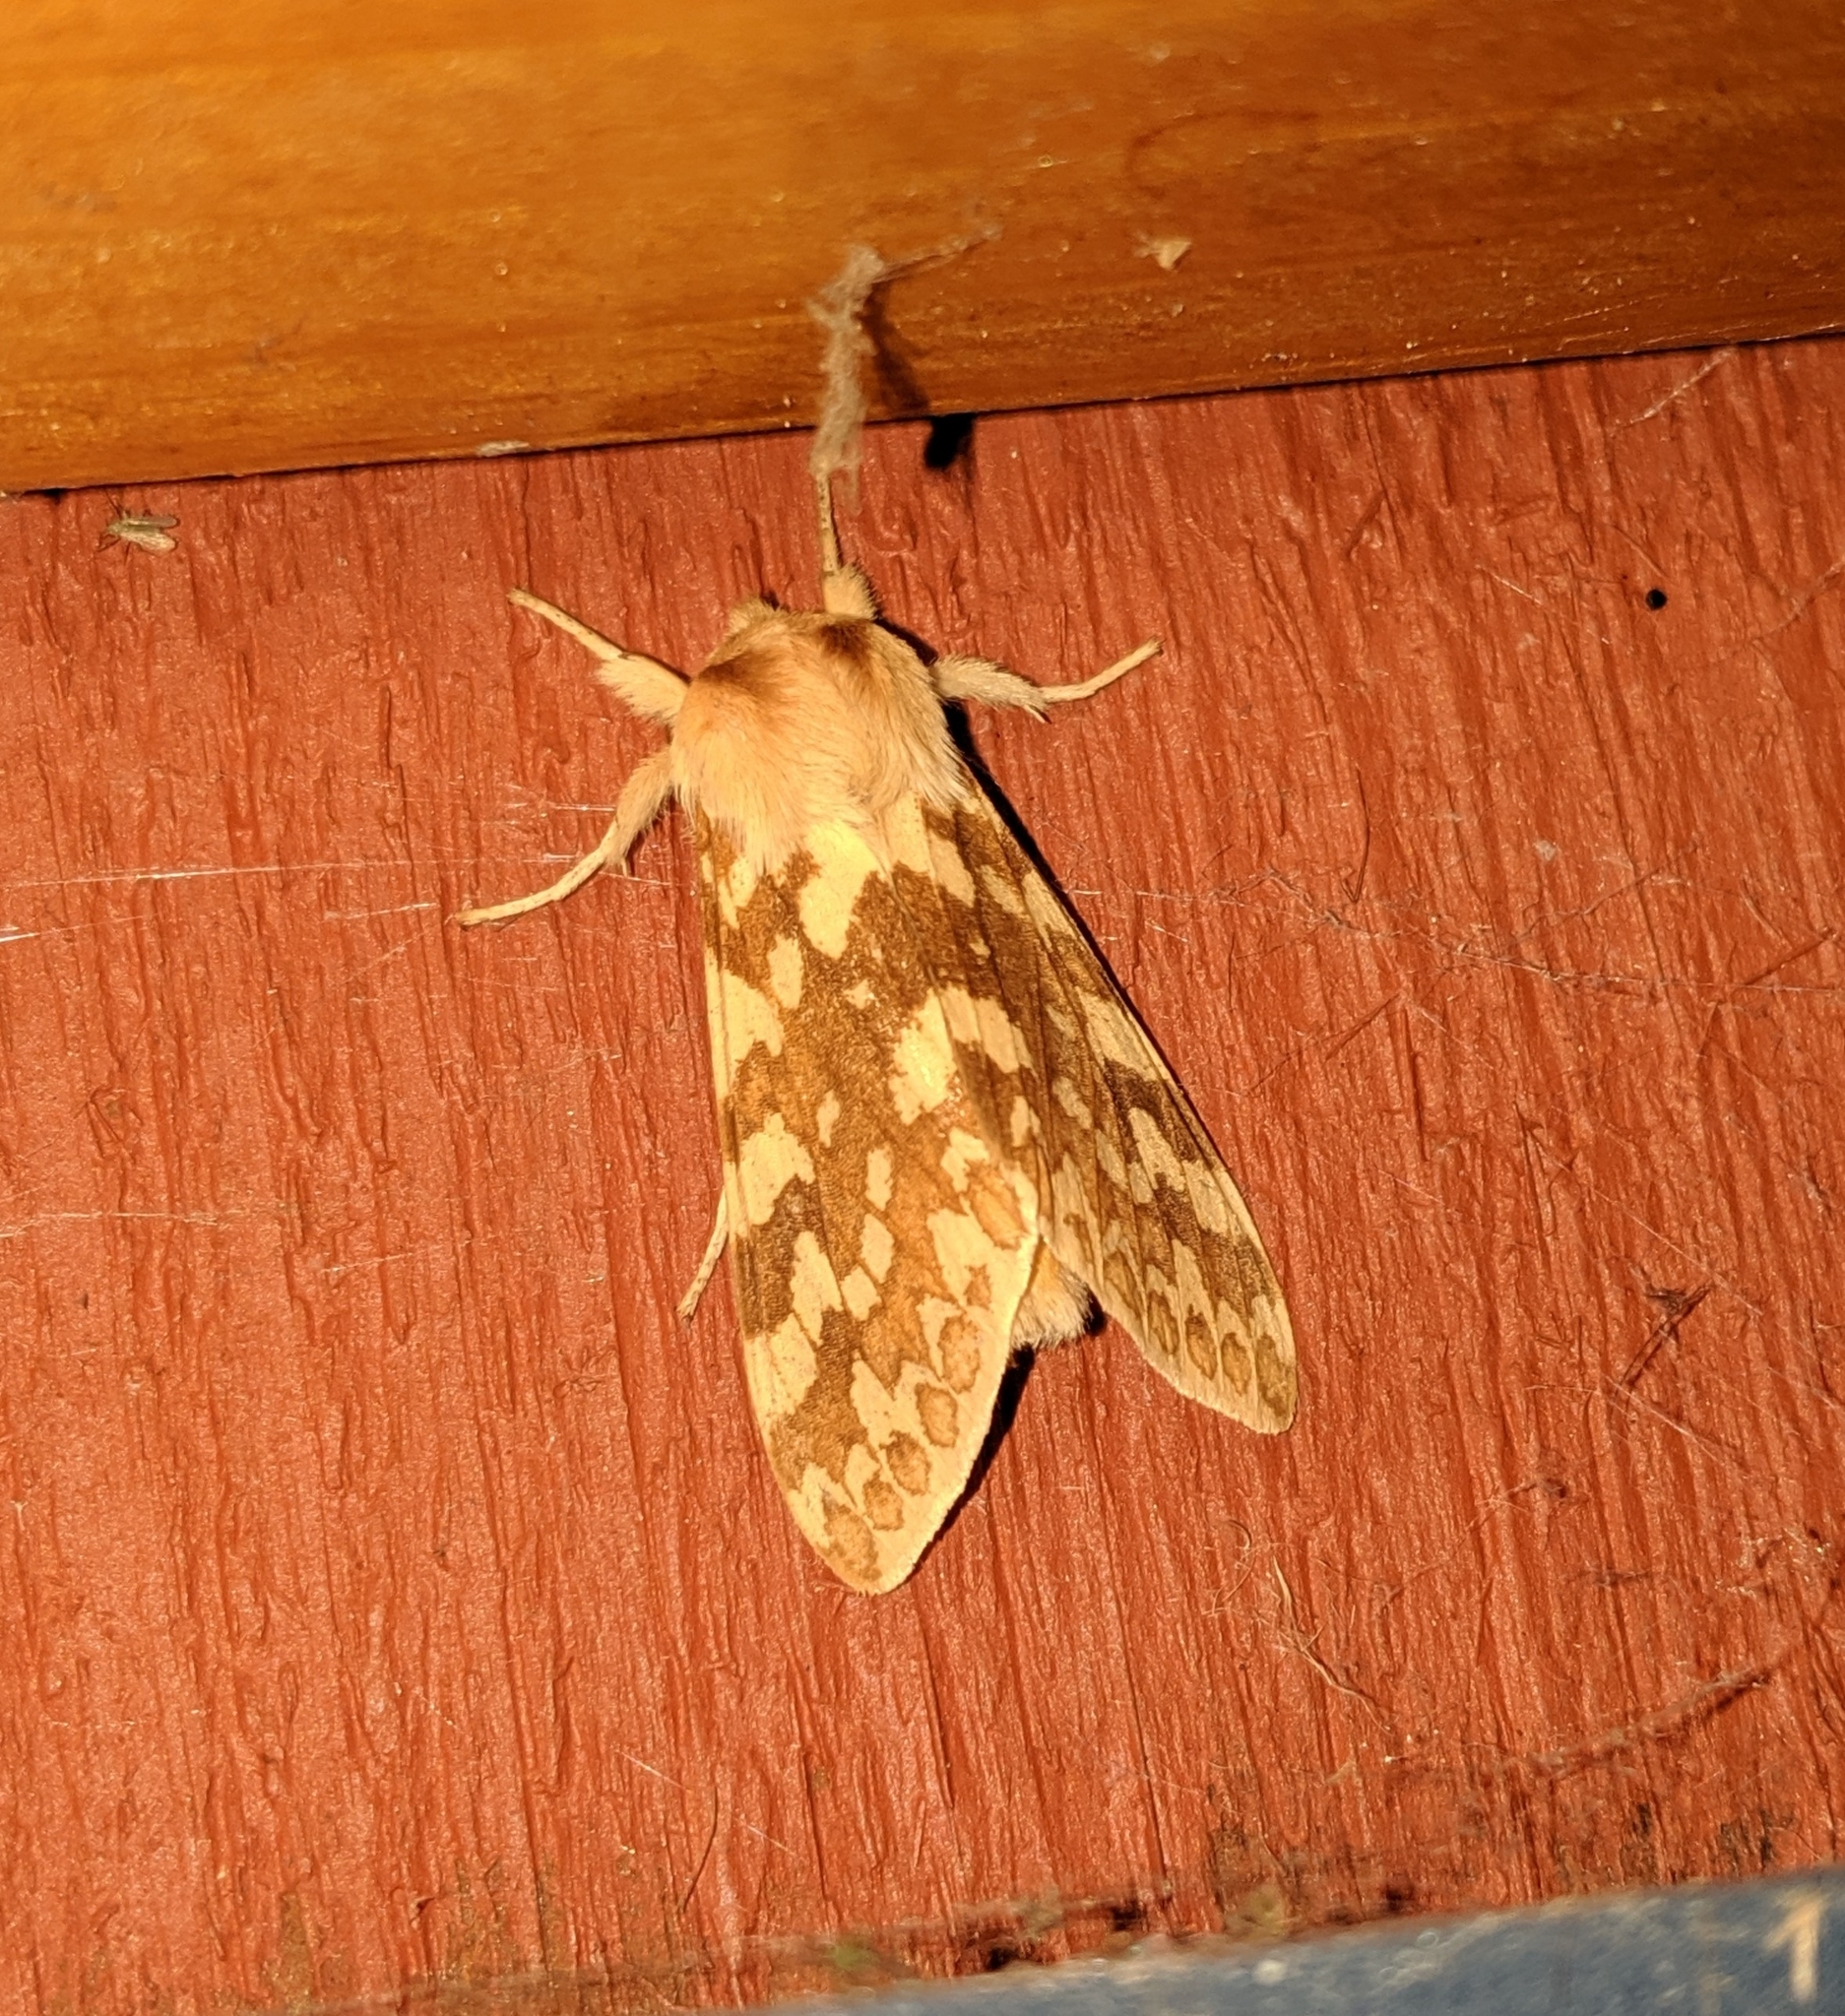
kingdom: Animalia
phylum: Arthropoda
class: Insecta
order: Lepidoptera
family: Erebidae
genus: Lophocampa
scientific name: Lophocampa maculata
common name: Spotted tussock moth
